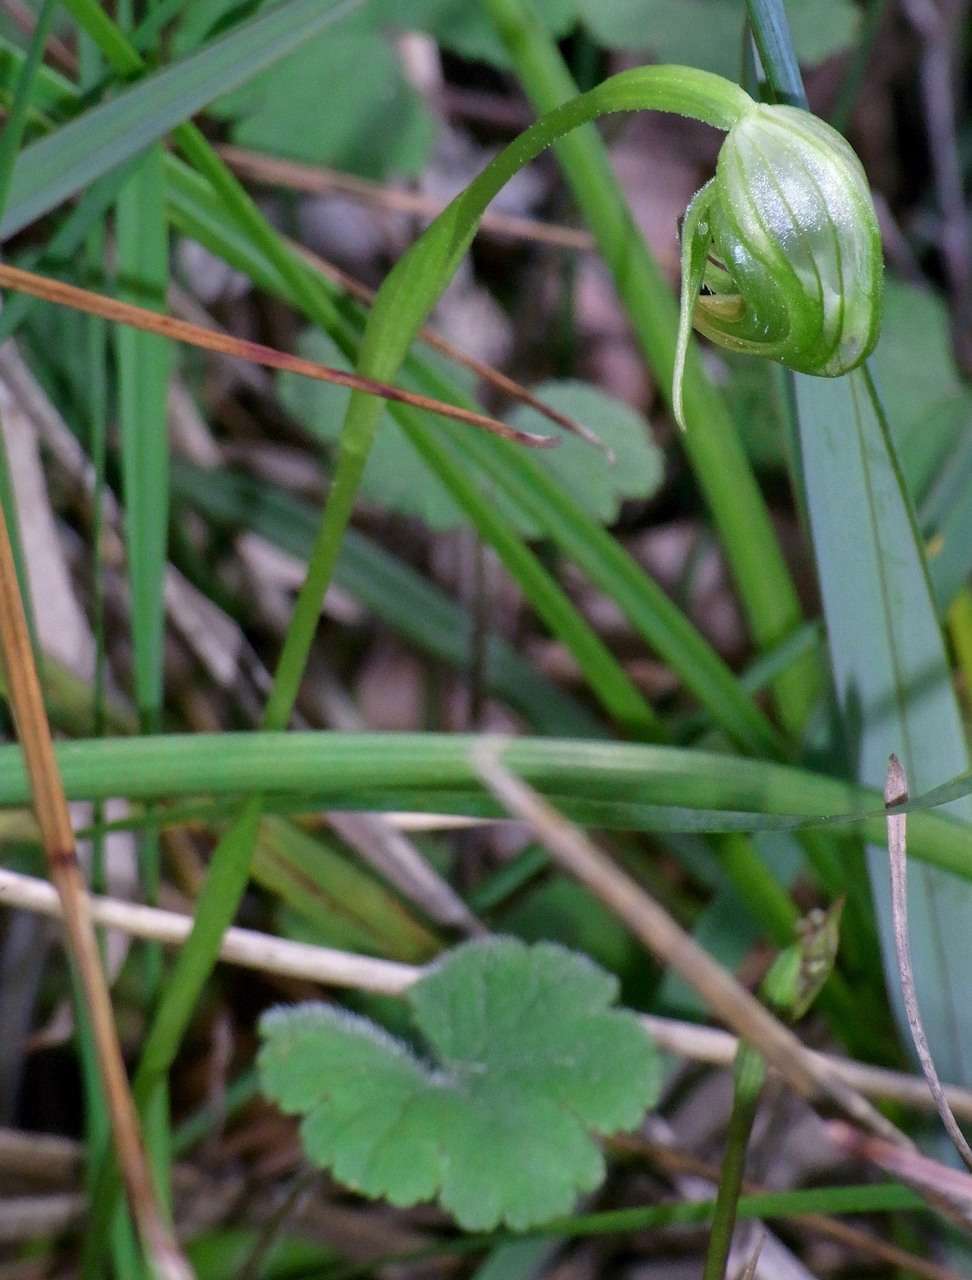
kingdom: Plantae
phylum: Tracheophyta
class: Liliopsida
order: Asparagales
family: Orchidaceae
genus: Pterostylis
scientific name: Pterostylis nutans
